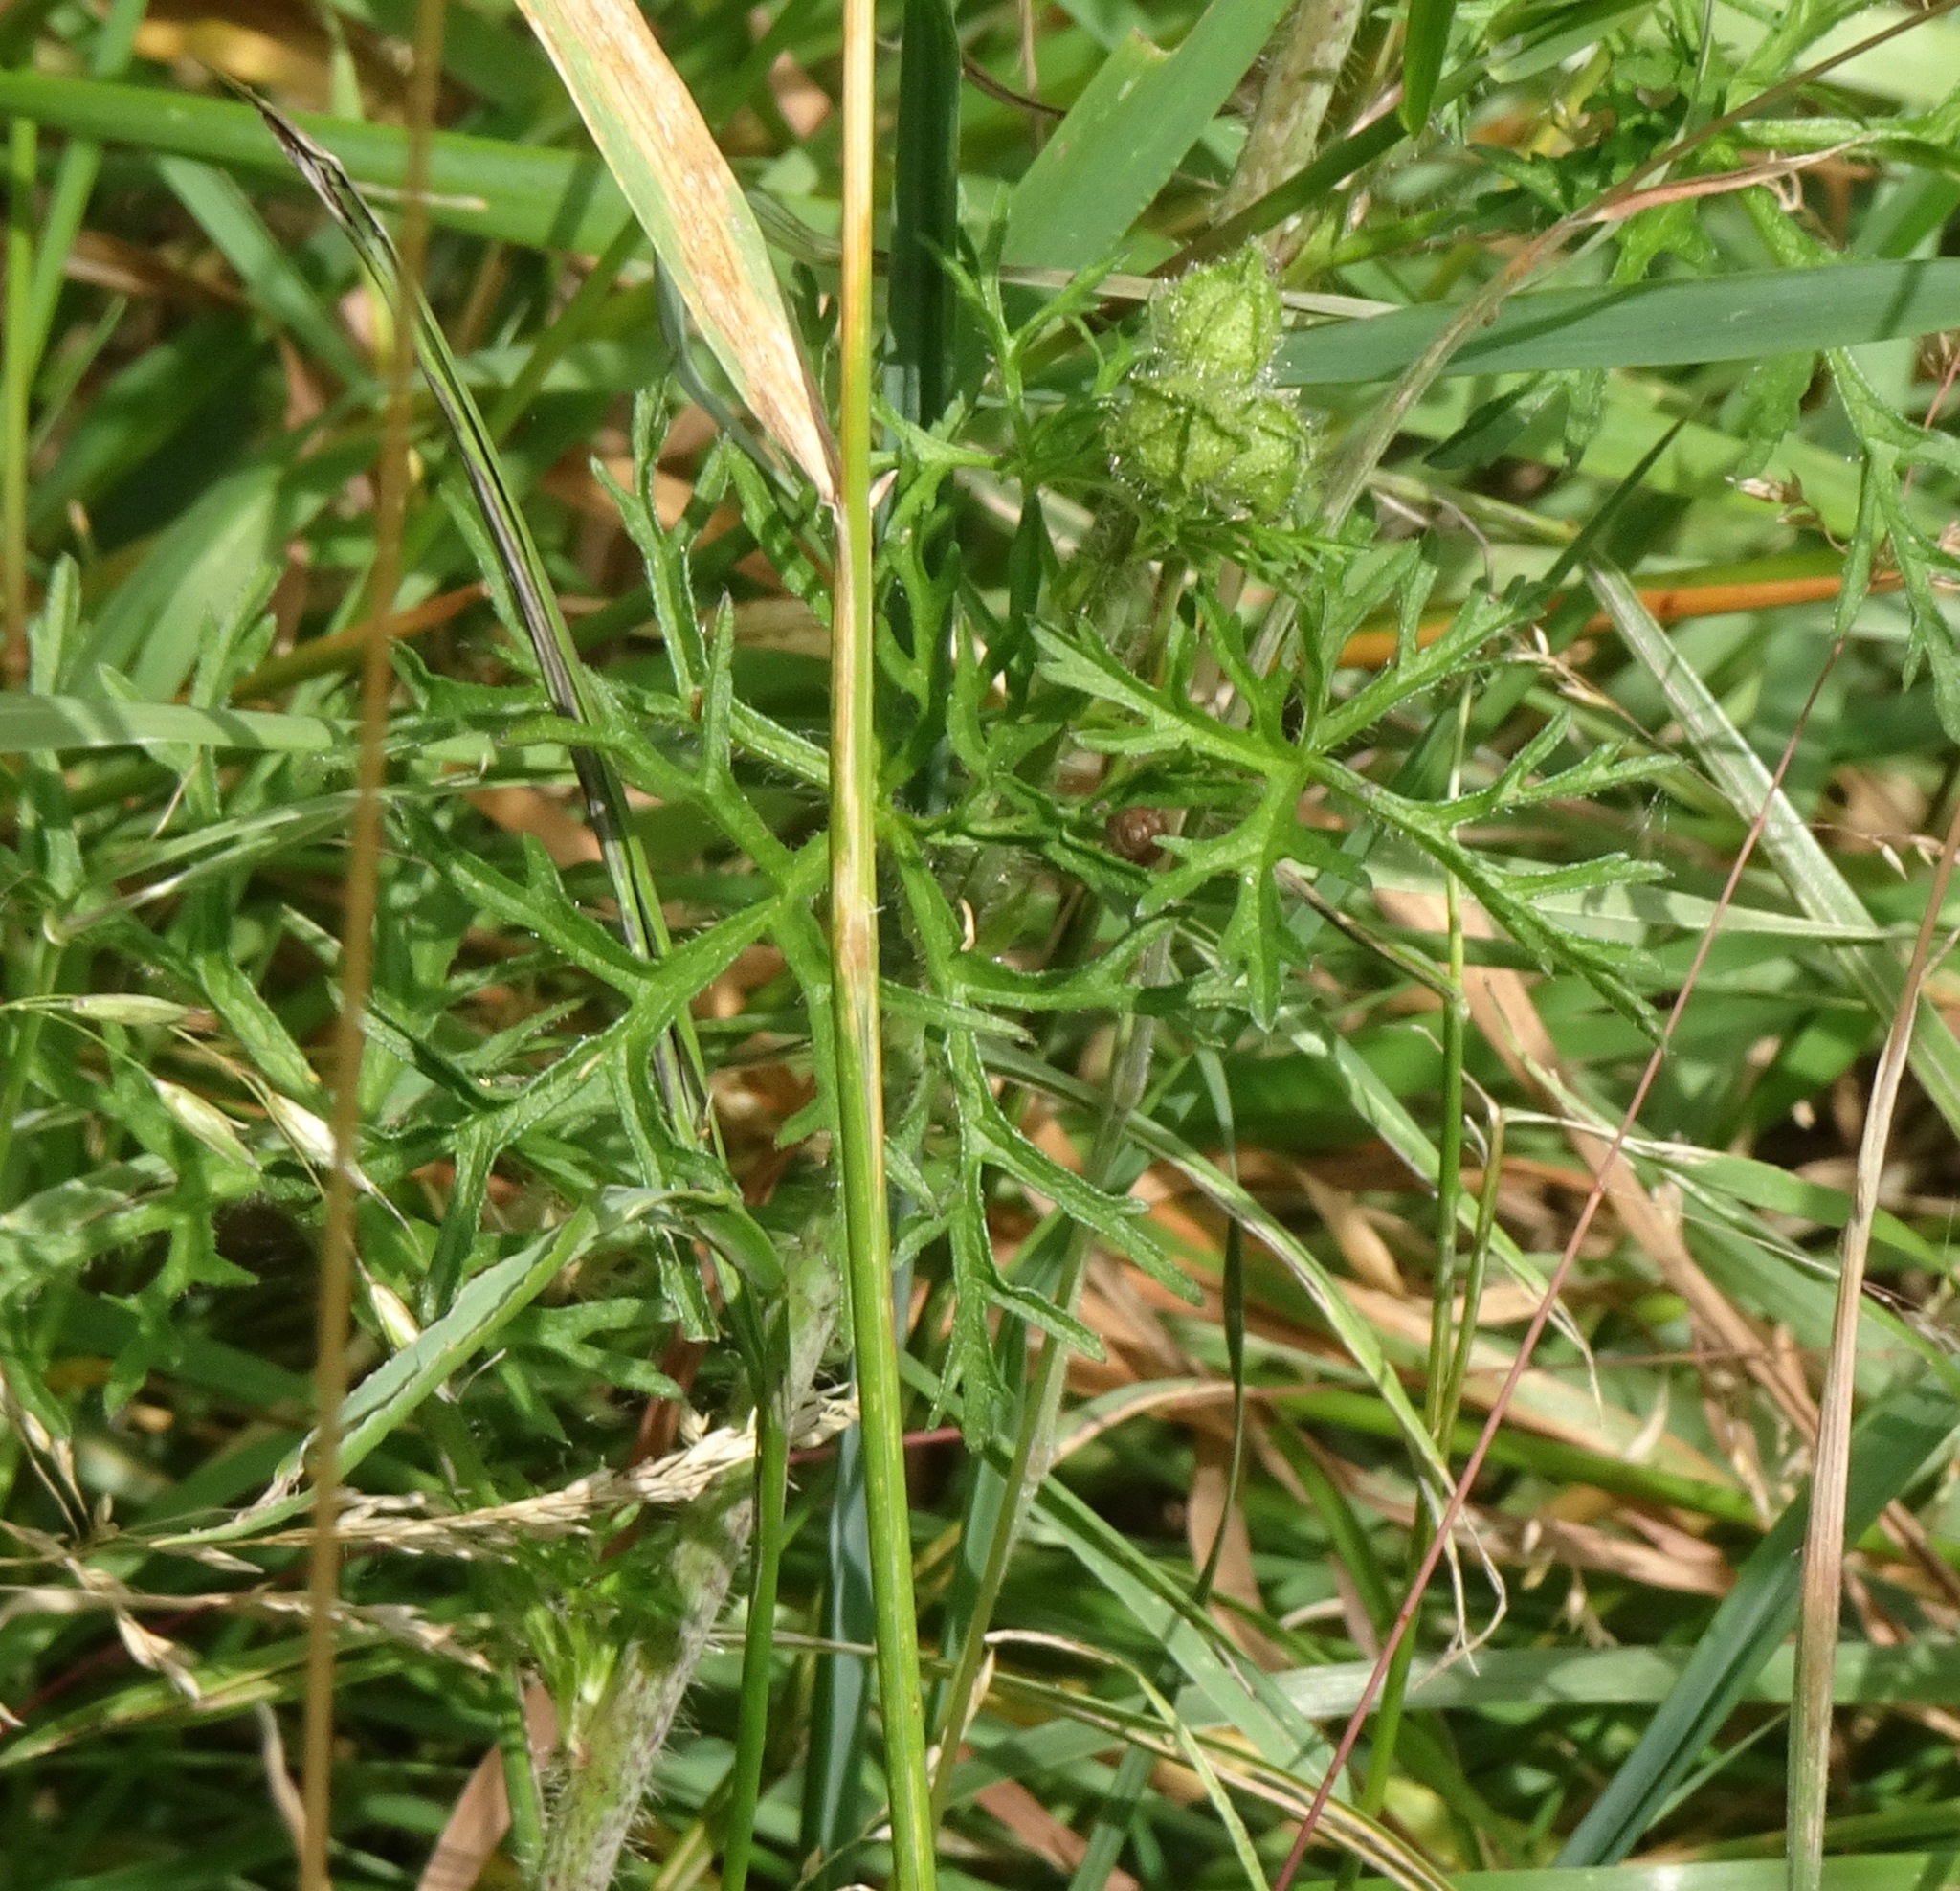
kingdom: Plantae
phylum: Tracheophyta
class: Magnoliopsida
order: Malvales
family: Malvaceae
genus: Malva
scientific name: Malva moschata
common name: Musk mallow
